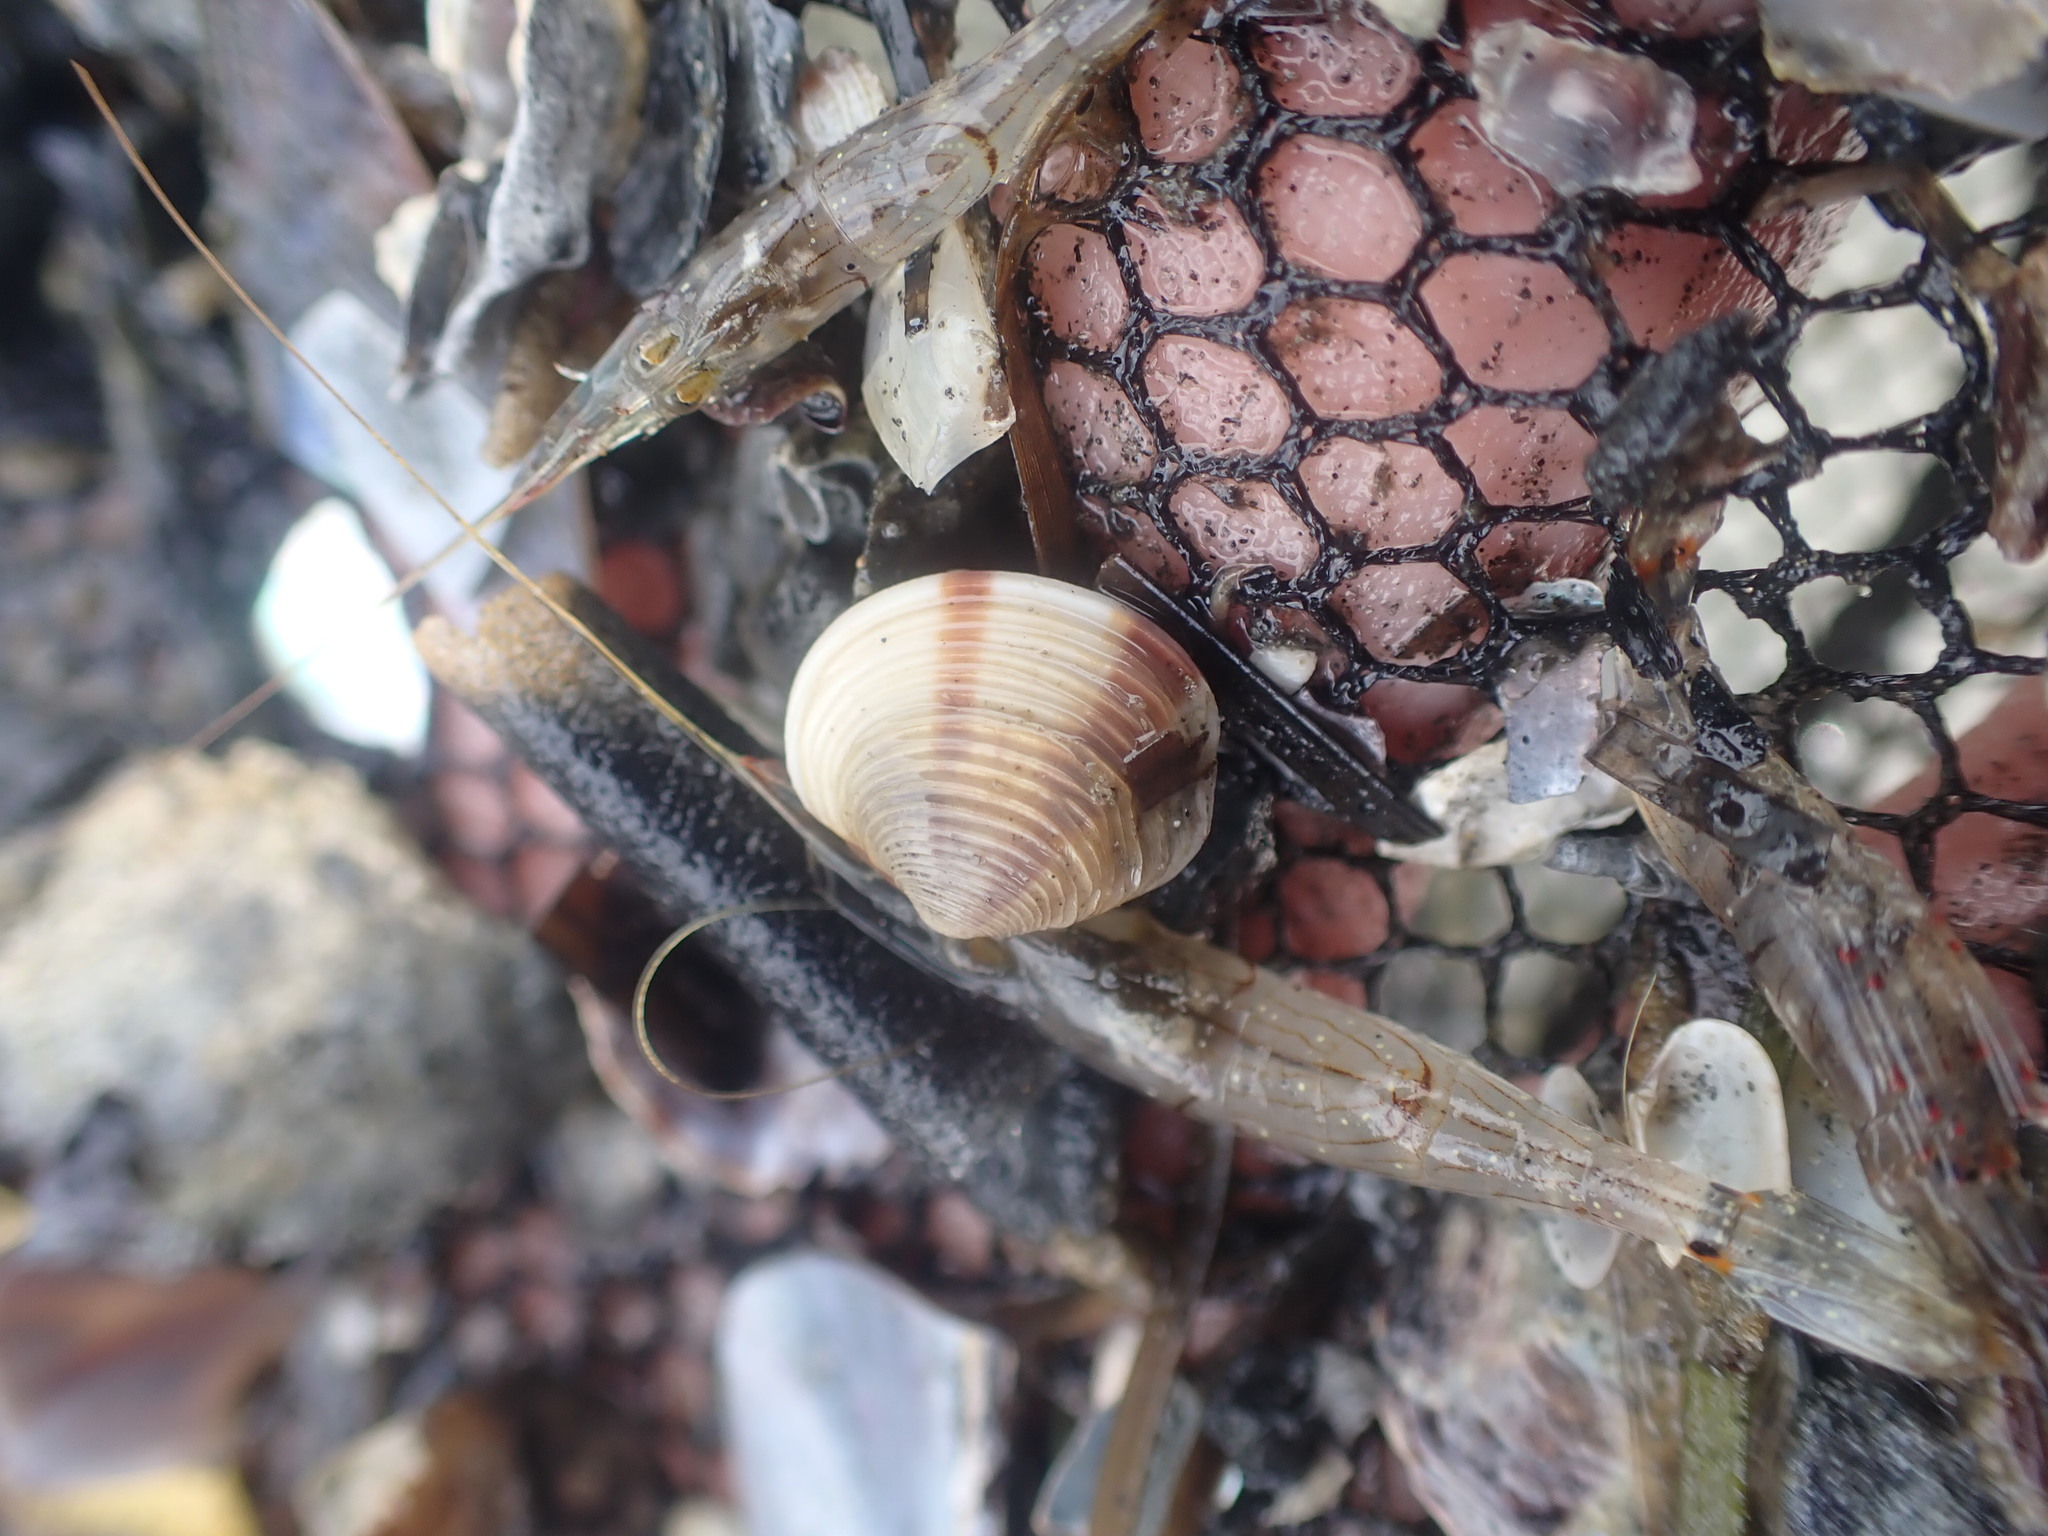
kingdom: Animalia
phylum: Mollusca
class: Bivalvia
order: Venerida
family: Veneridae
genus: Tawera
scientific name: Tawera spissa
